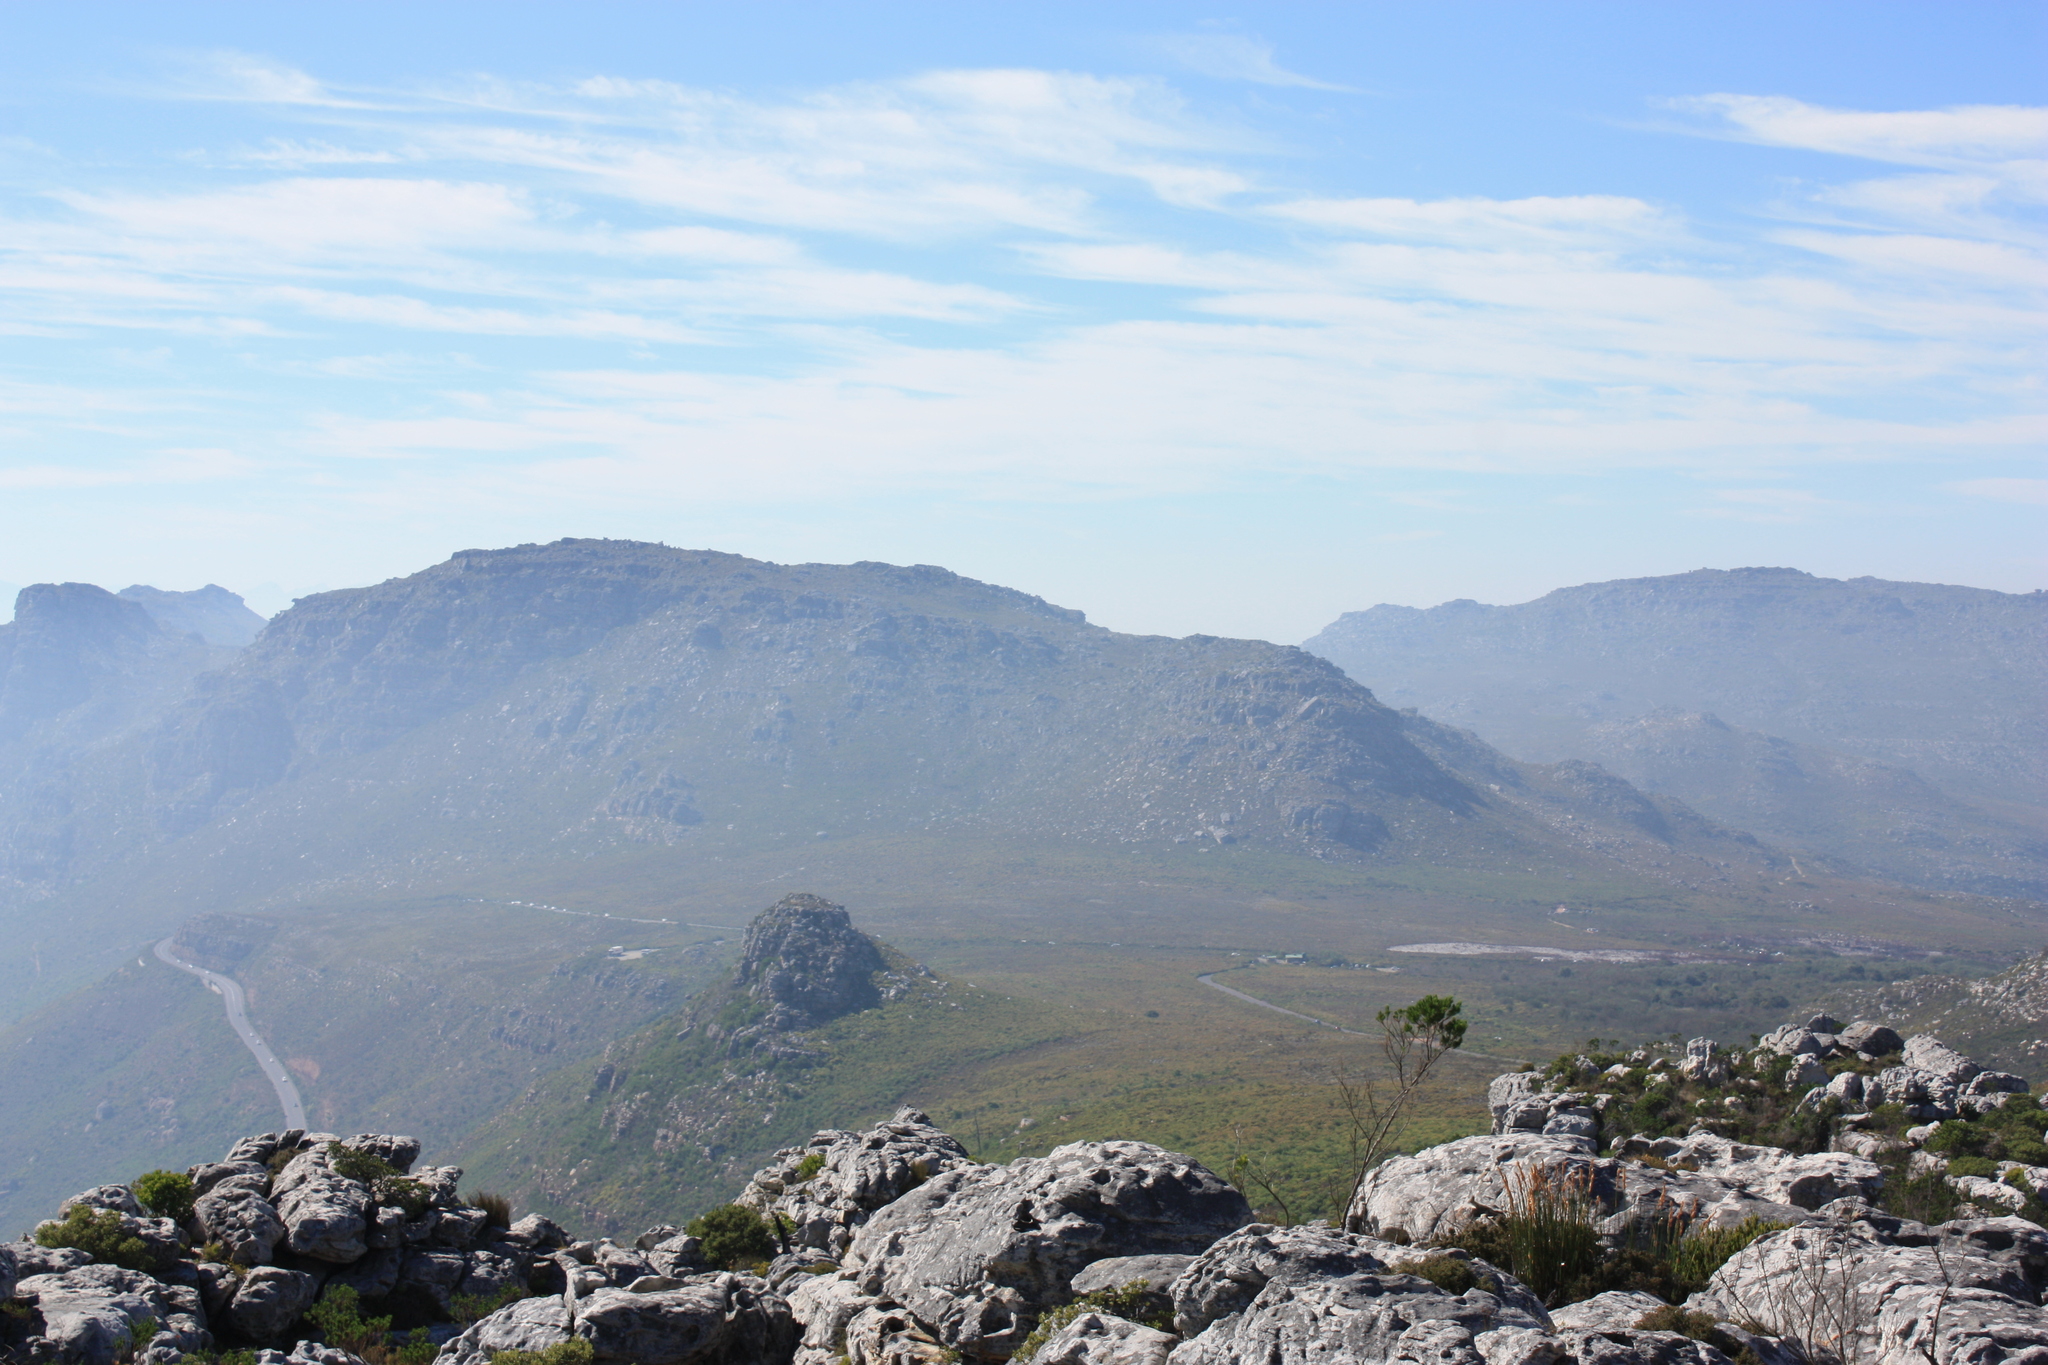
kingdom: Plantae
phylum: Tracheophyta
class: Magnoliopsida
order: Fabales
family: Fabaceae
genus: Psoralea
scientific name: Psoralea pinnata
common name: African scurfpea
